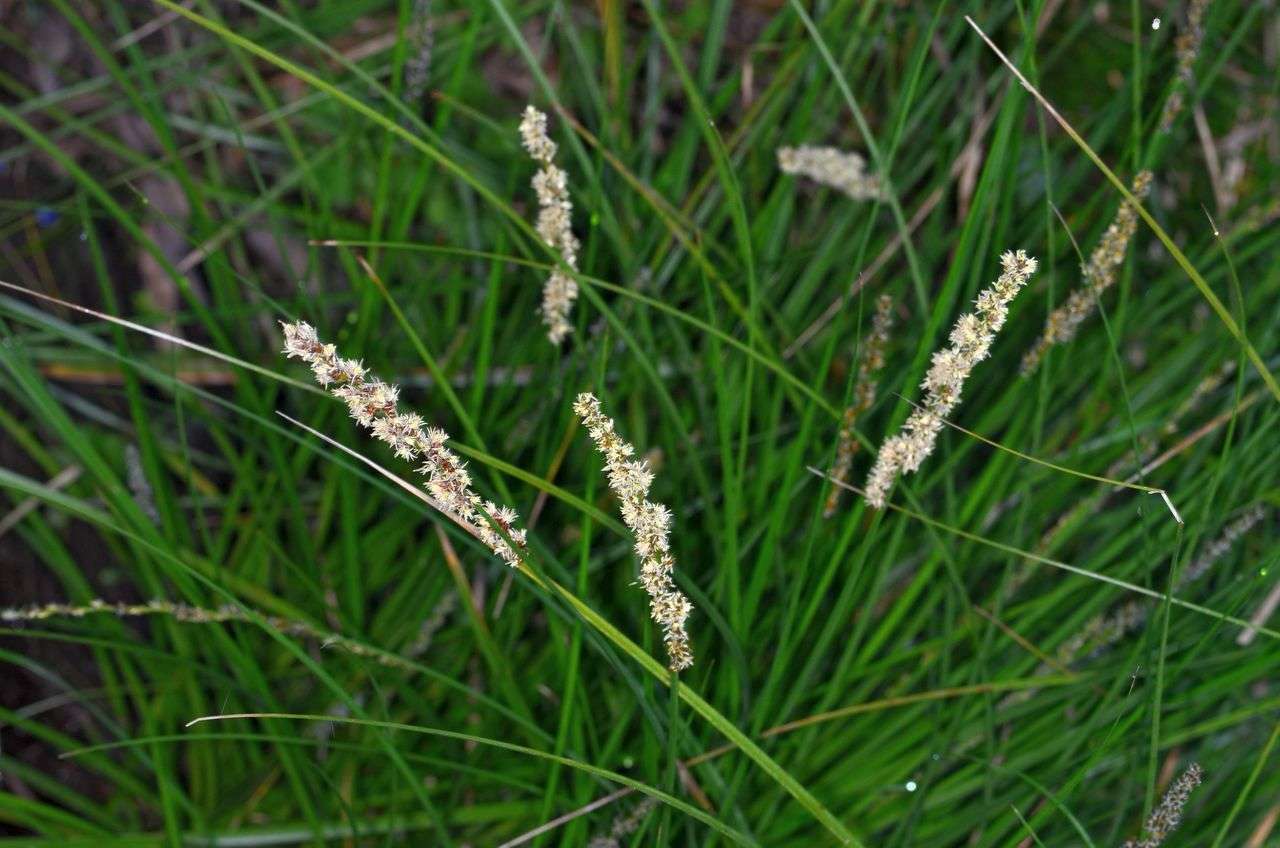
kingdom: Plantae
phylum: Tracheophyta
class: Liliopsida
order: Poales
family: Cyperaceae
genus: Carex
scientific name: Carex appressa
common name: Tussock sedge
